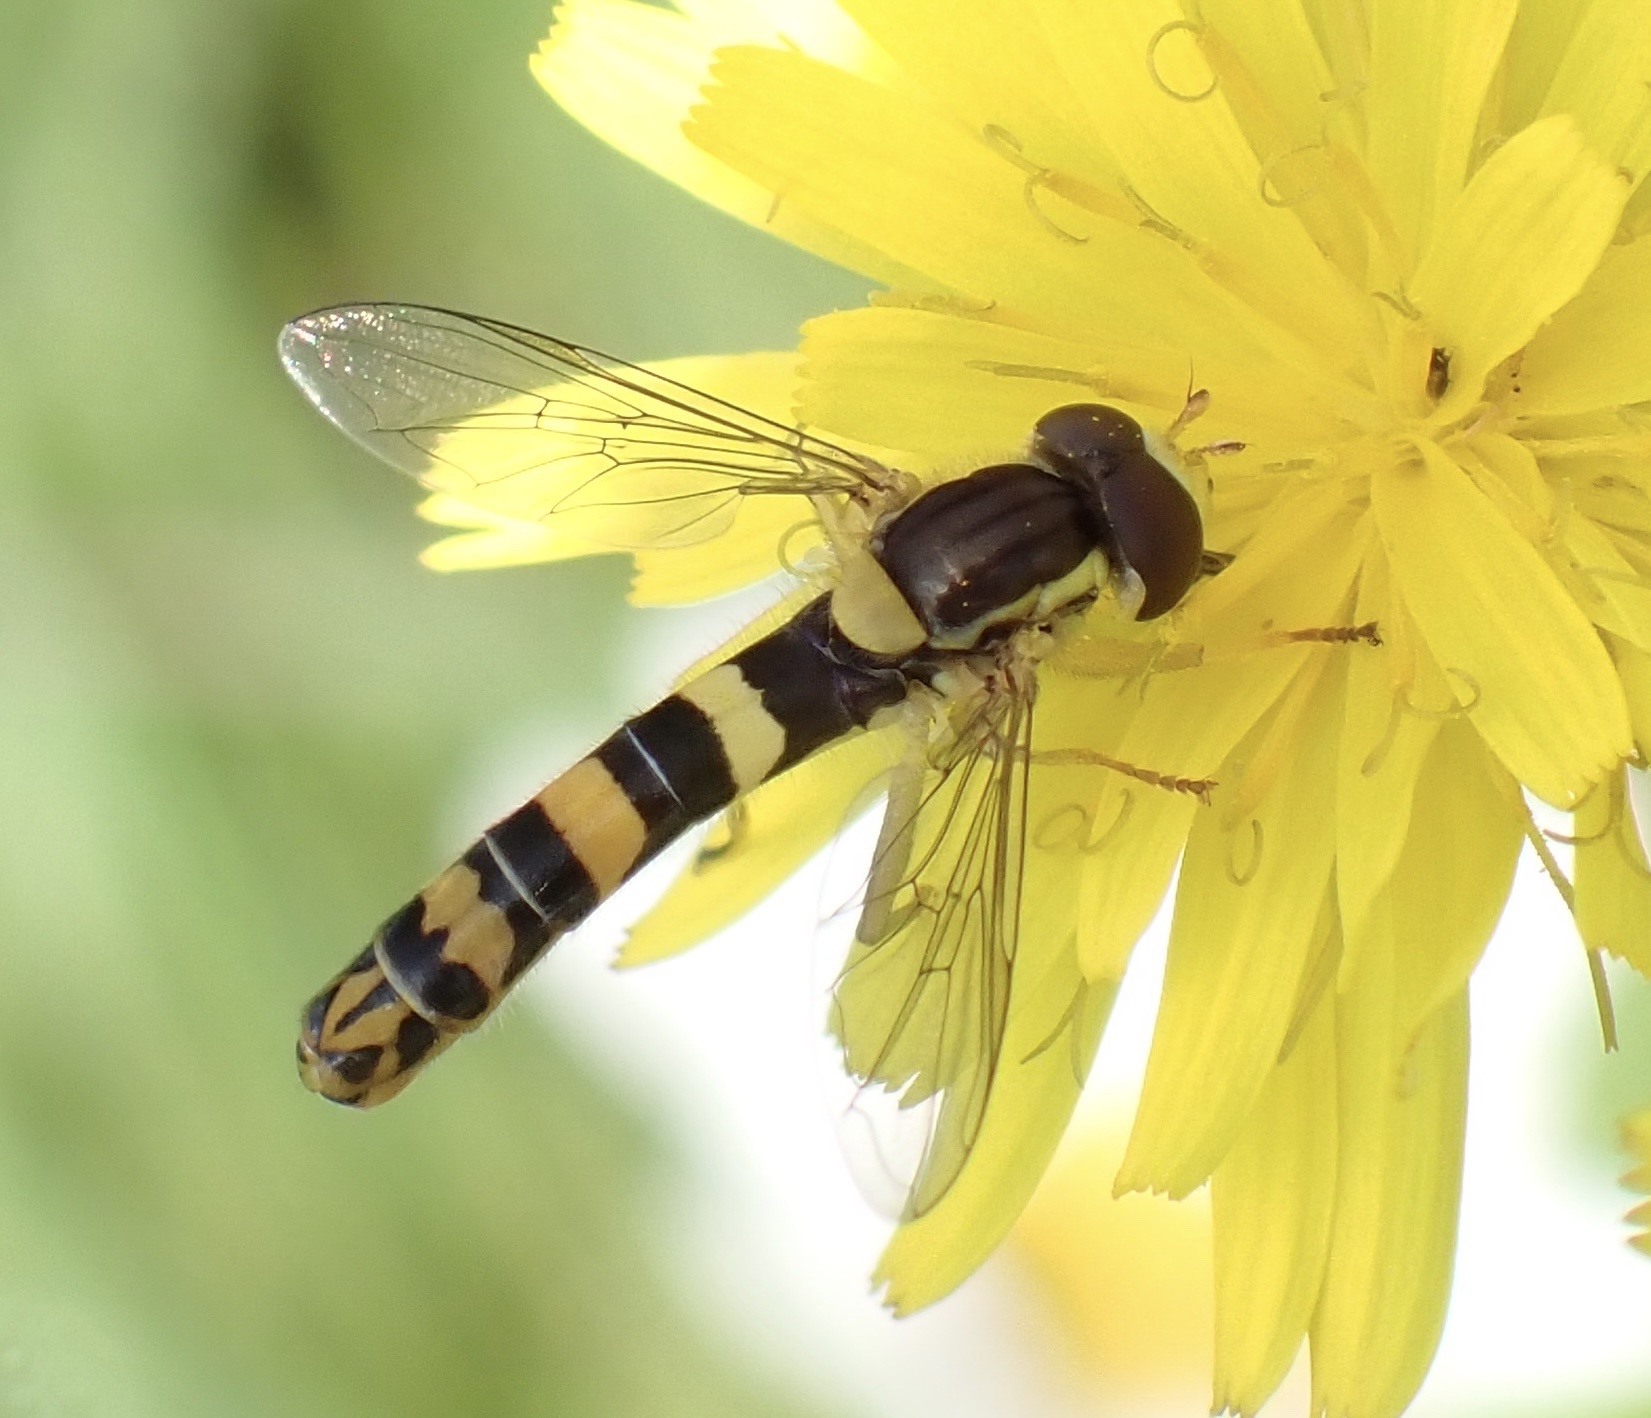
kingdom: Animalia
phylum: Arthropoda
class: Insecta
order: Diptera
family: Syrphidae
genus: Sphaerophoria
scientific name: Sphaerophoria scripta
